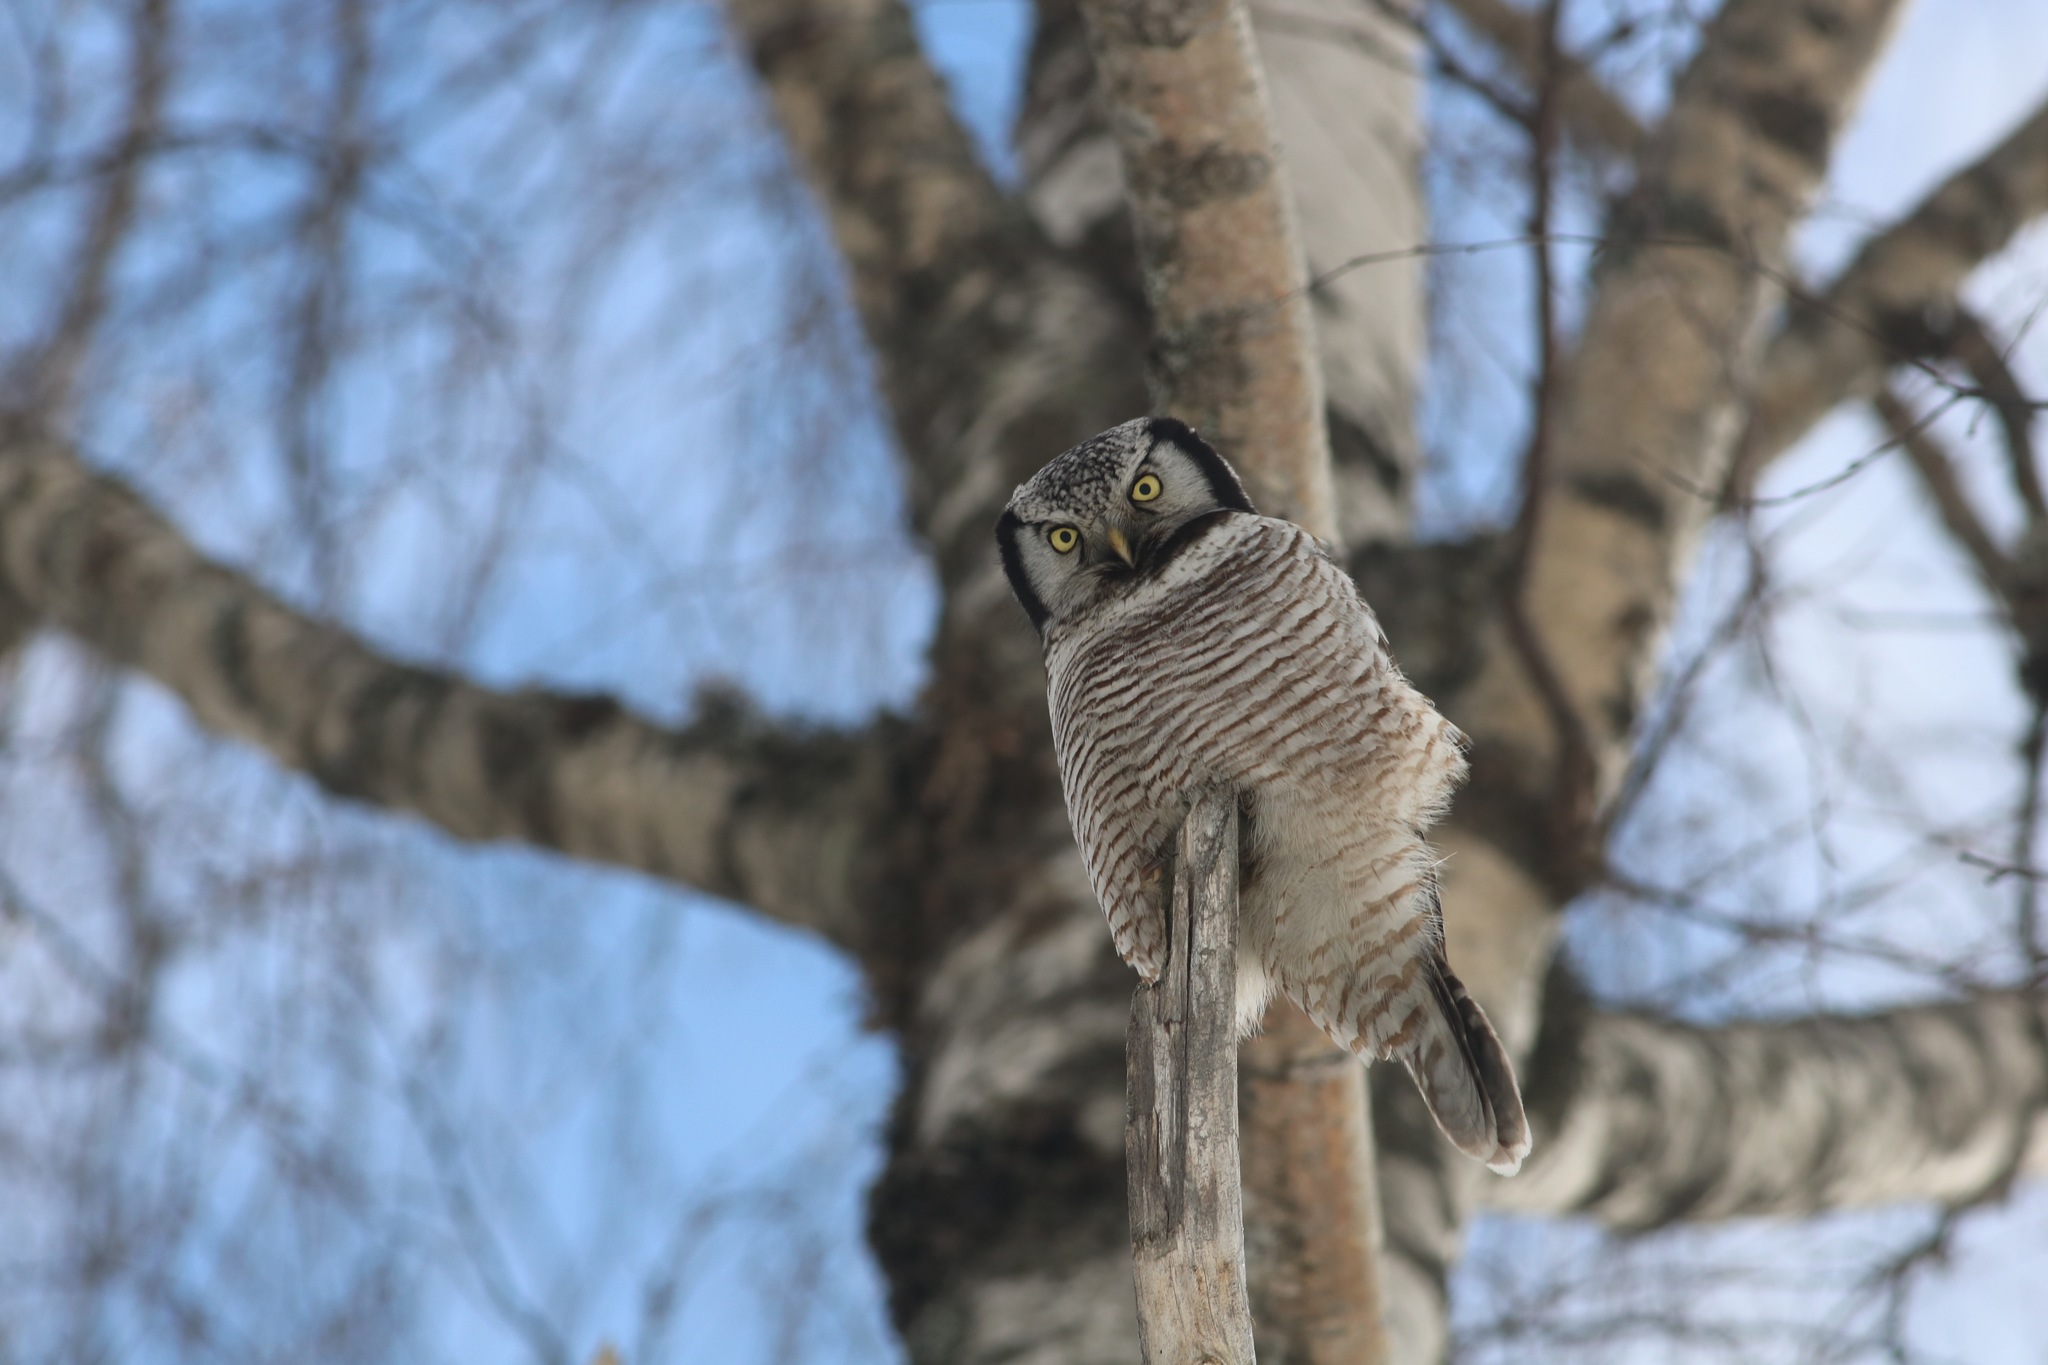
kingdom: Animalia
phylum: Chordata
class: Aves
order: Strigiformes
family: Strigidae
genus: Surnia
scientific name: Surnia ulula
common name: Northern hawk-owl
